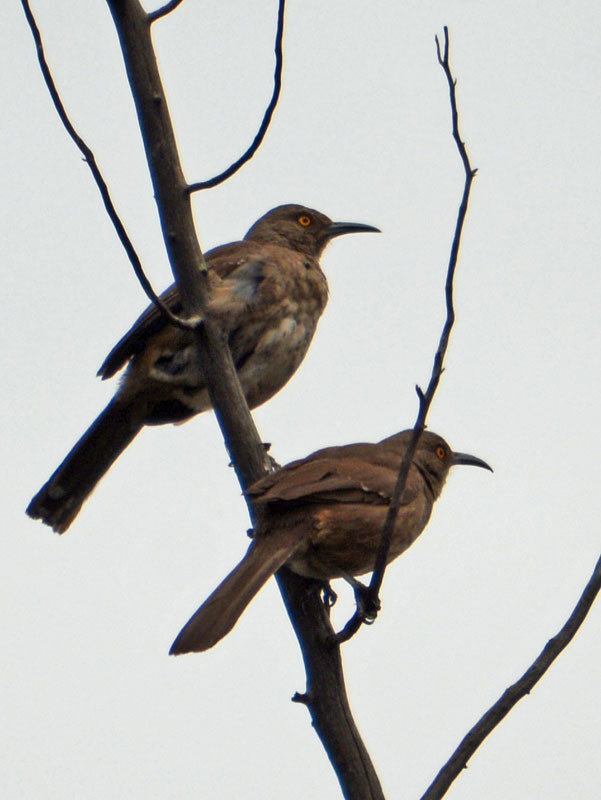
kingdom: Animalia
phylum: Chordata
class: Aves
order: Passeriformes
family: Mimidae
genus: Toxostoma
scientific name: Toxostoma curvirostre
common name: Curve-billed thrasher
